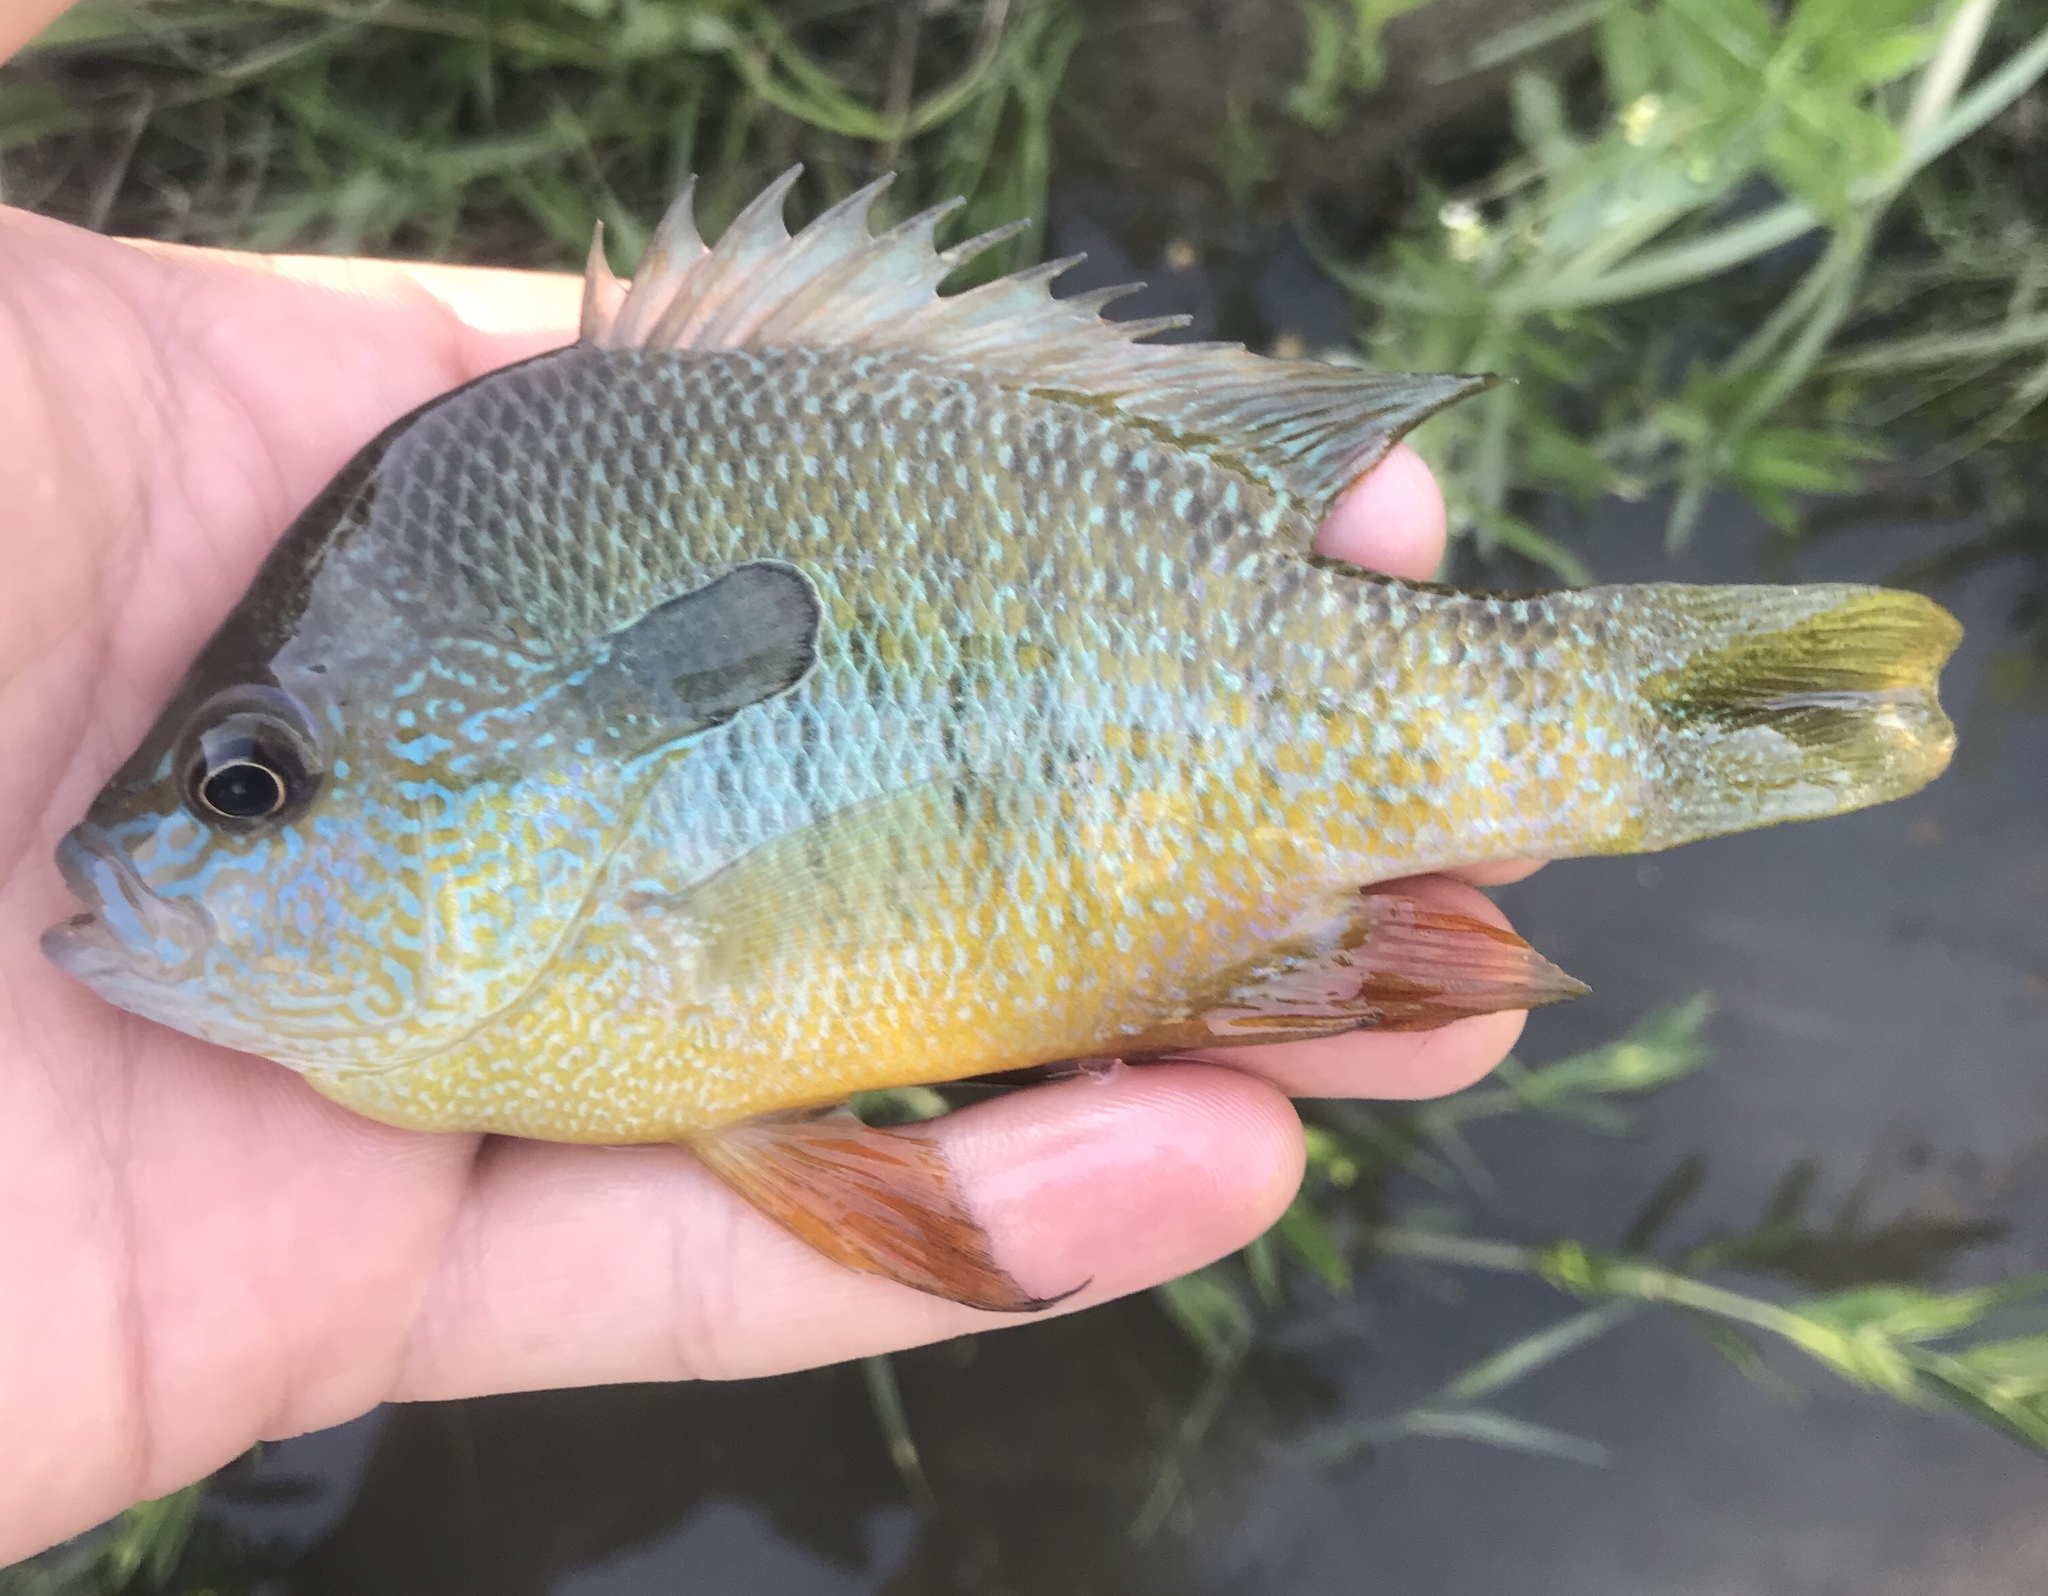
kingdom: Animalia
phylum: Chordata
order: Perciformes
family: Centrarchidae
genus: Lepomis
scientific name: Lepomis megalotis
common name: Longear sunfish
